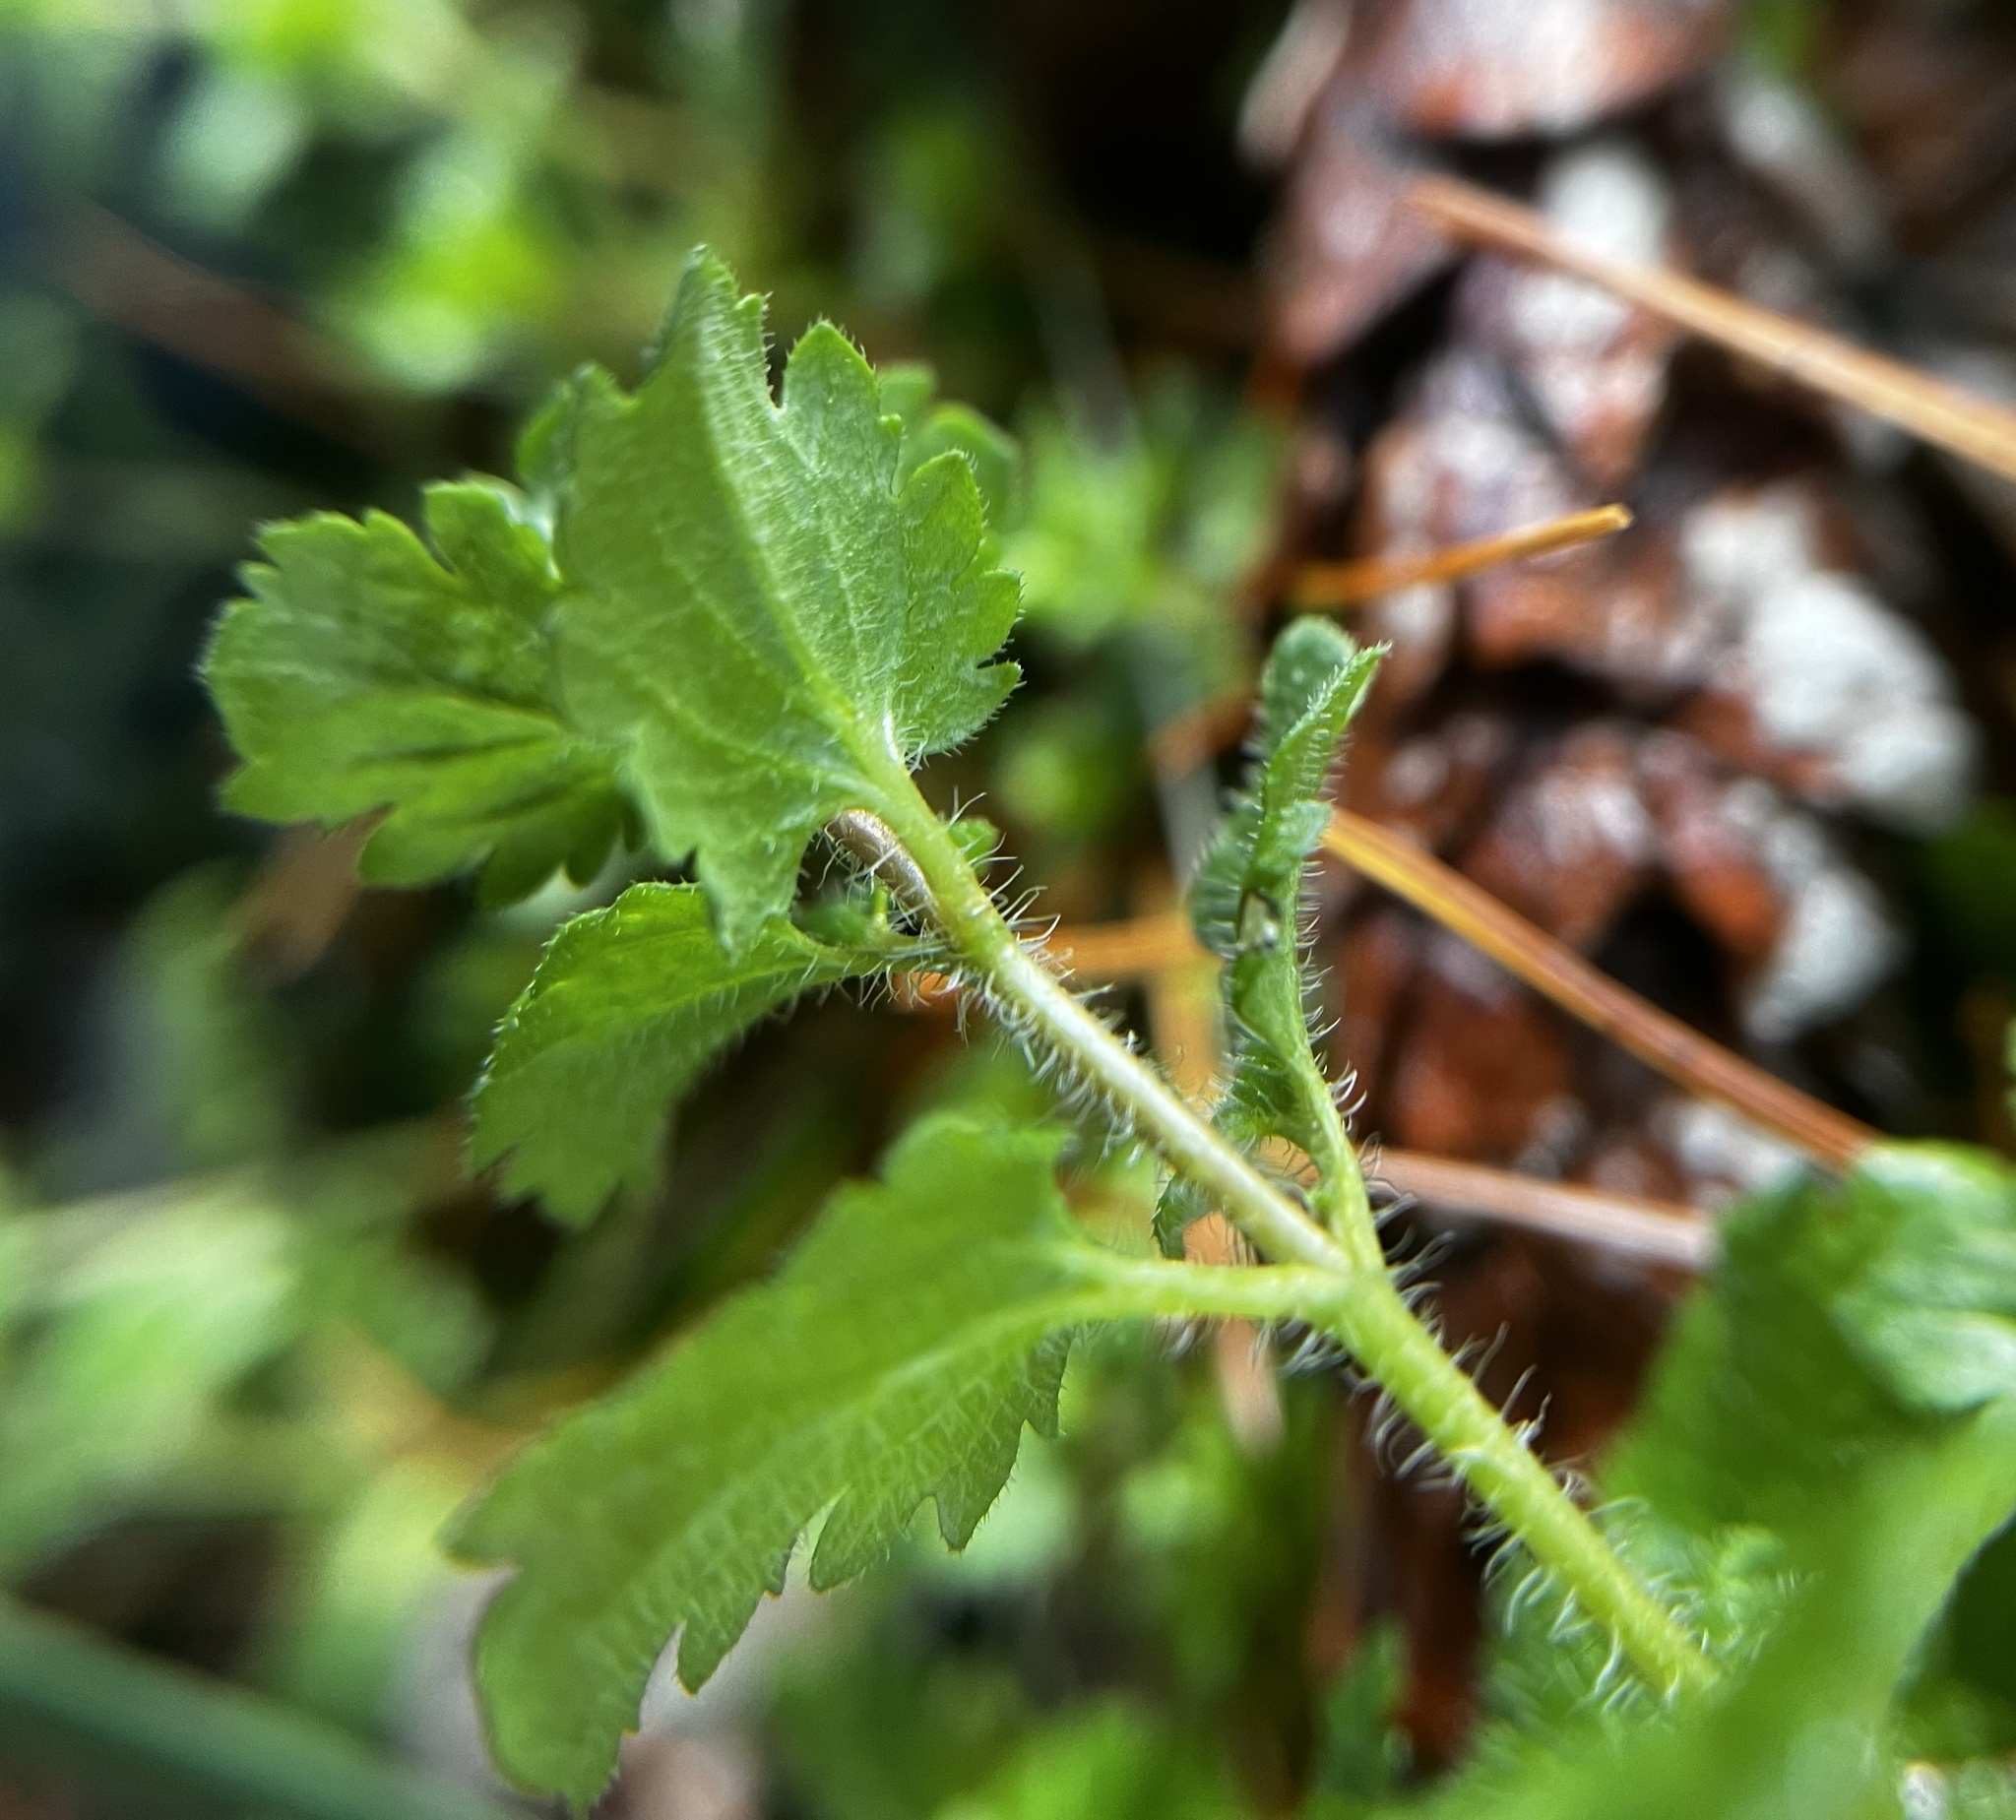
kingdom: Plantae
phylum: Tracheophyta
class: Magnoliopsida
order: Lamiales
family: Plantaginaceae
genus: Veronica
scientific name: Veronica persica
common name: Common field-speedwell
